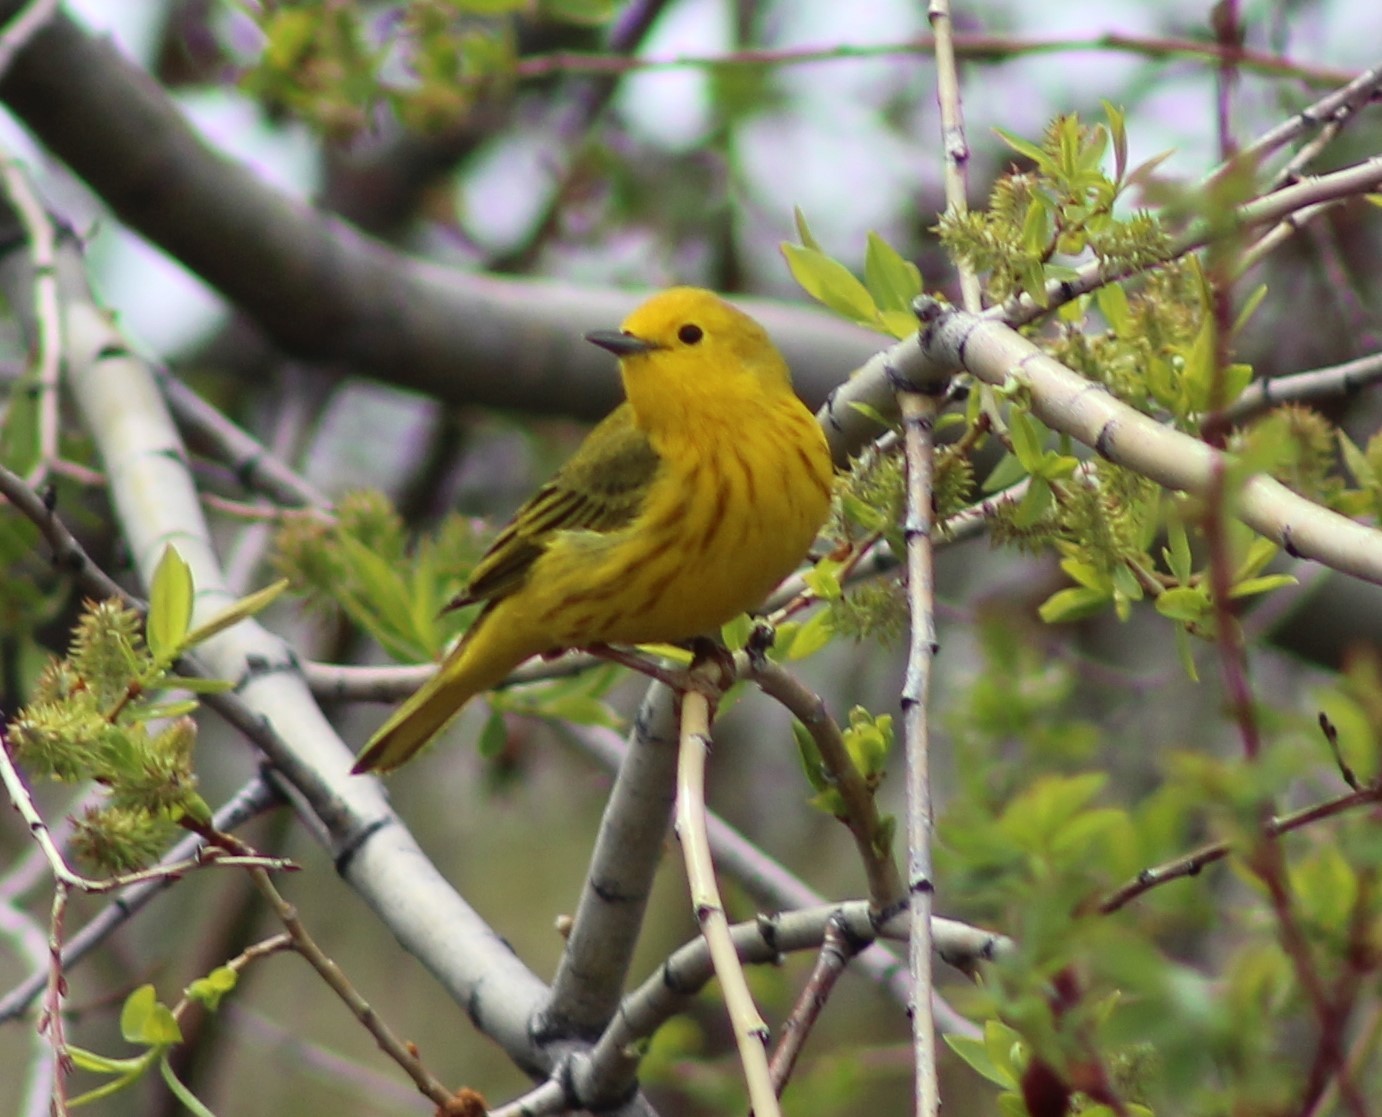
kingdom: Animalia
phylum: Chordata
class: Aves
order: Passeriformes
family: Parulidae
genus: Setophaga
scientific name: Setophaga petechia
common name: Yellow warbler
